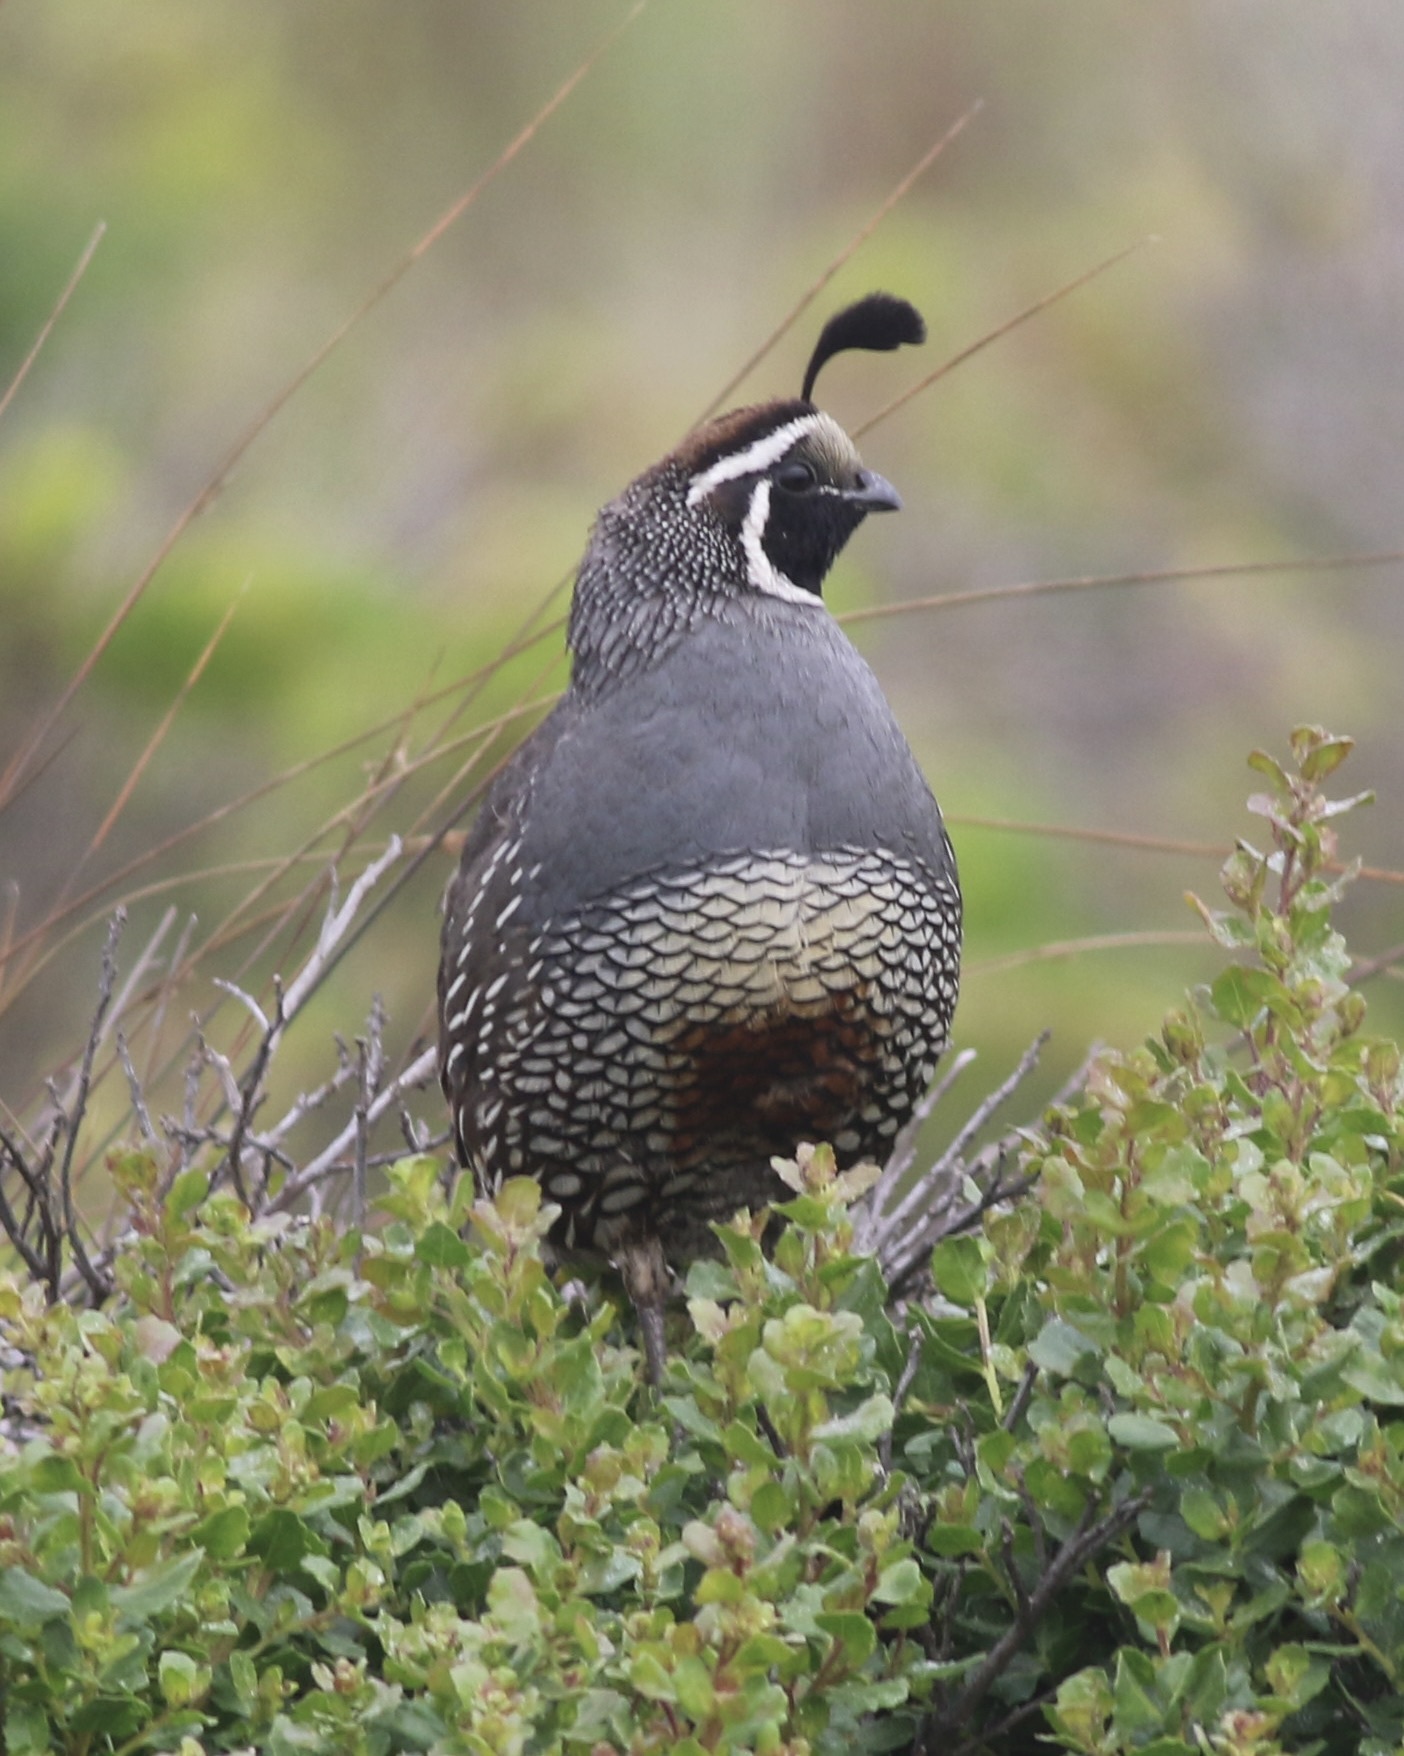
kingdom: Animalia
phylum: Chordata
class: Aves
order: Galliformes
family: Odontophoridae
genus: Callipepla
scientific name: Callipepla californica
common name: California quail
